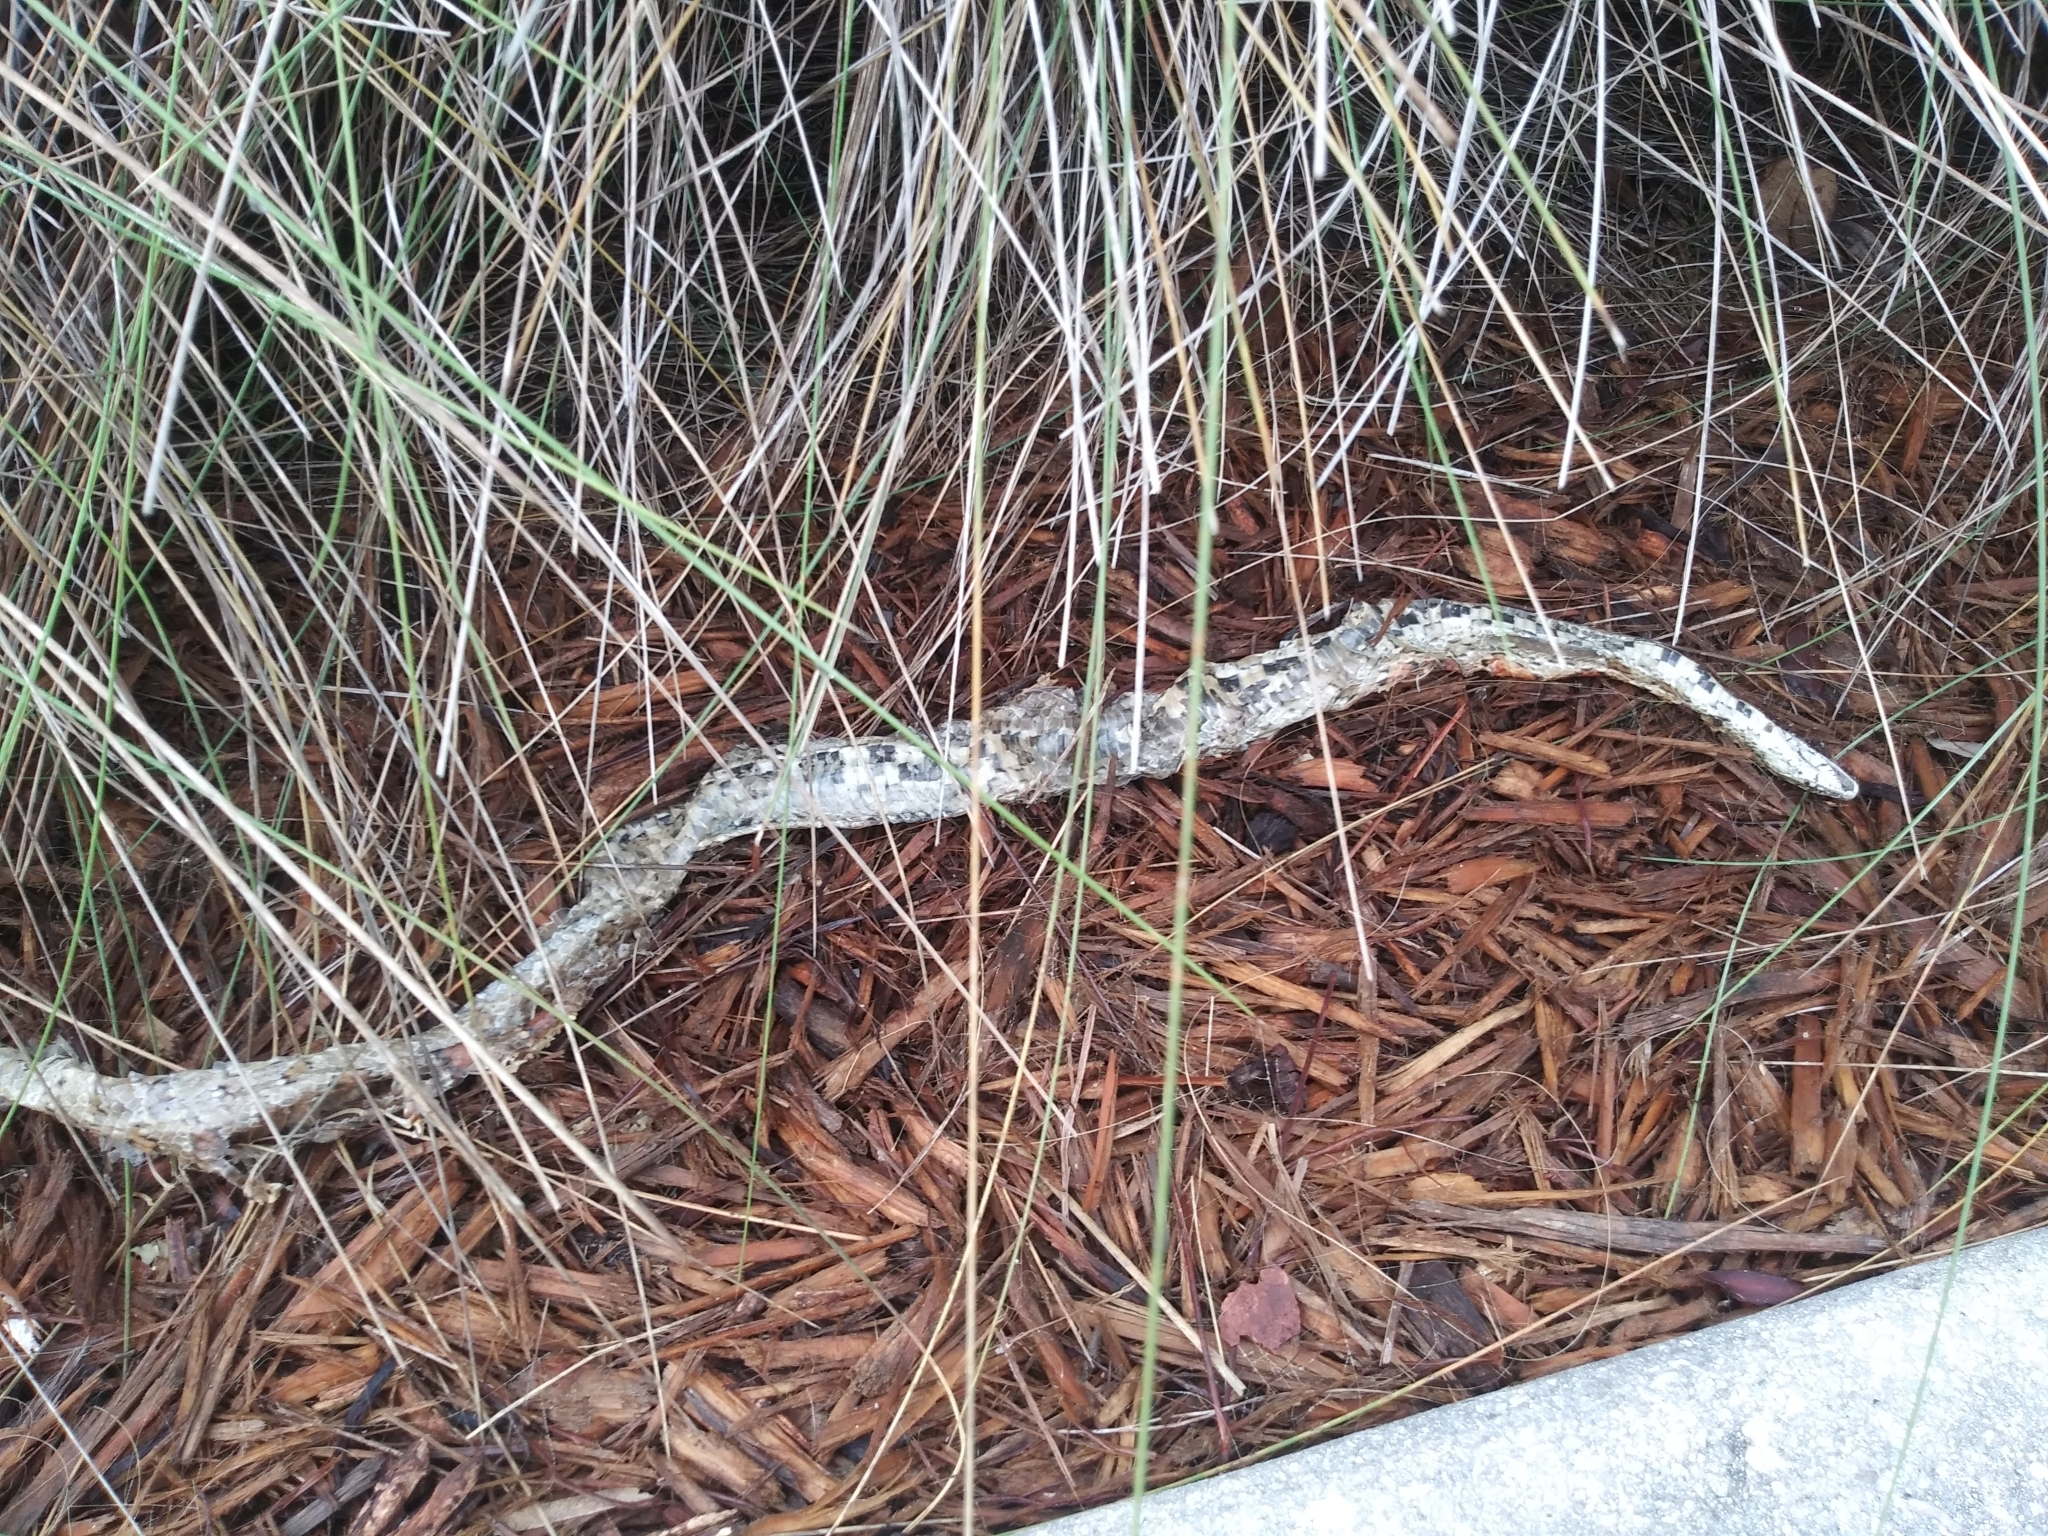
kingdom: Animalia
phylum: Chordata
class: Squamata
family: Colubridae
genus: Pantherophis
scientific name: Pantherophis guttatus
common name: Red cornsnake
